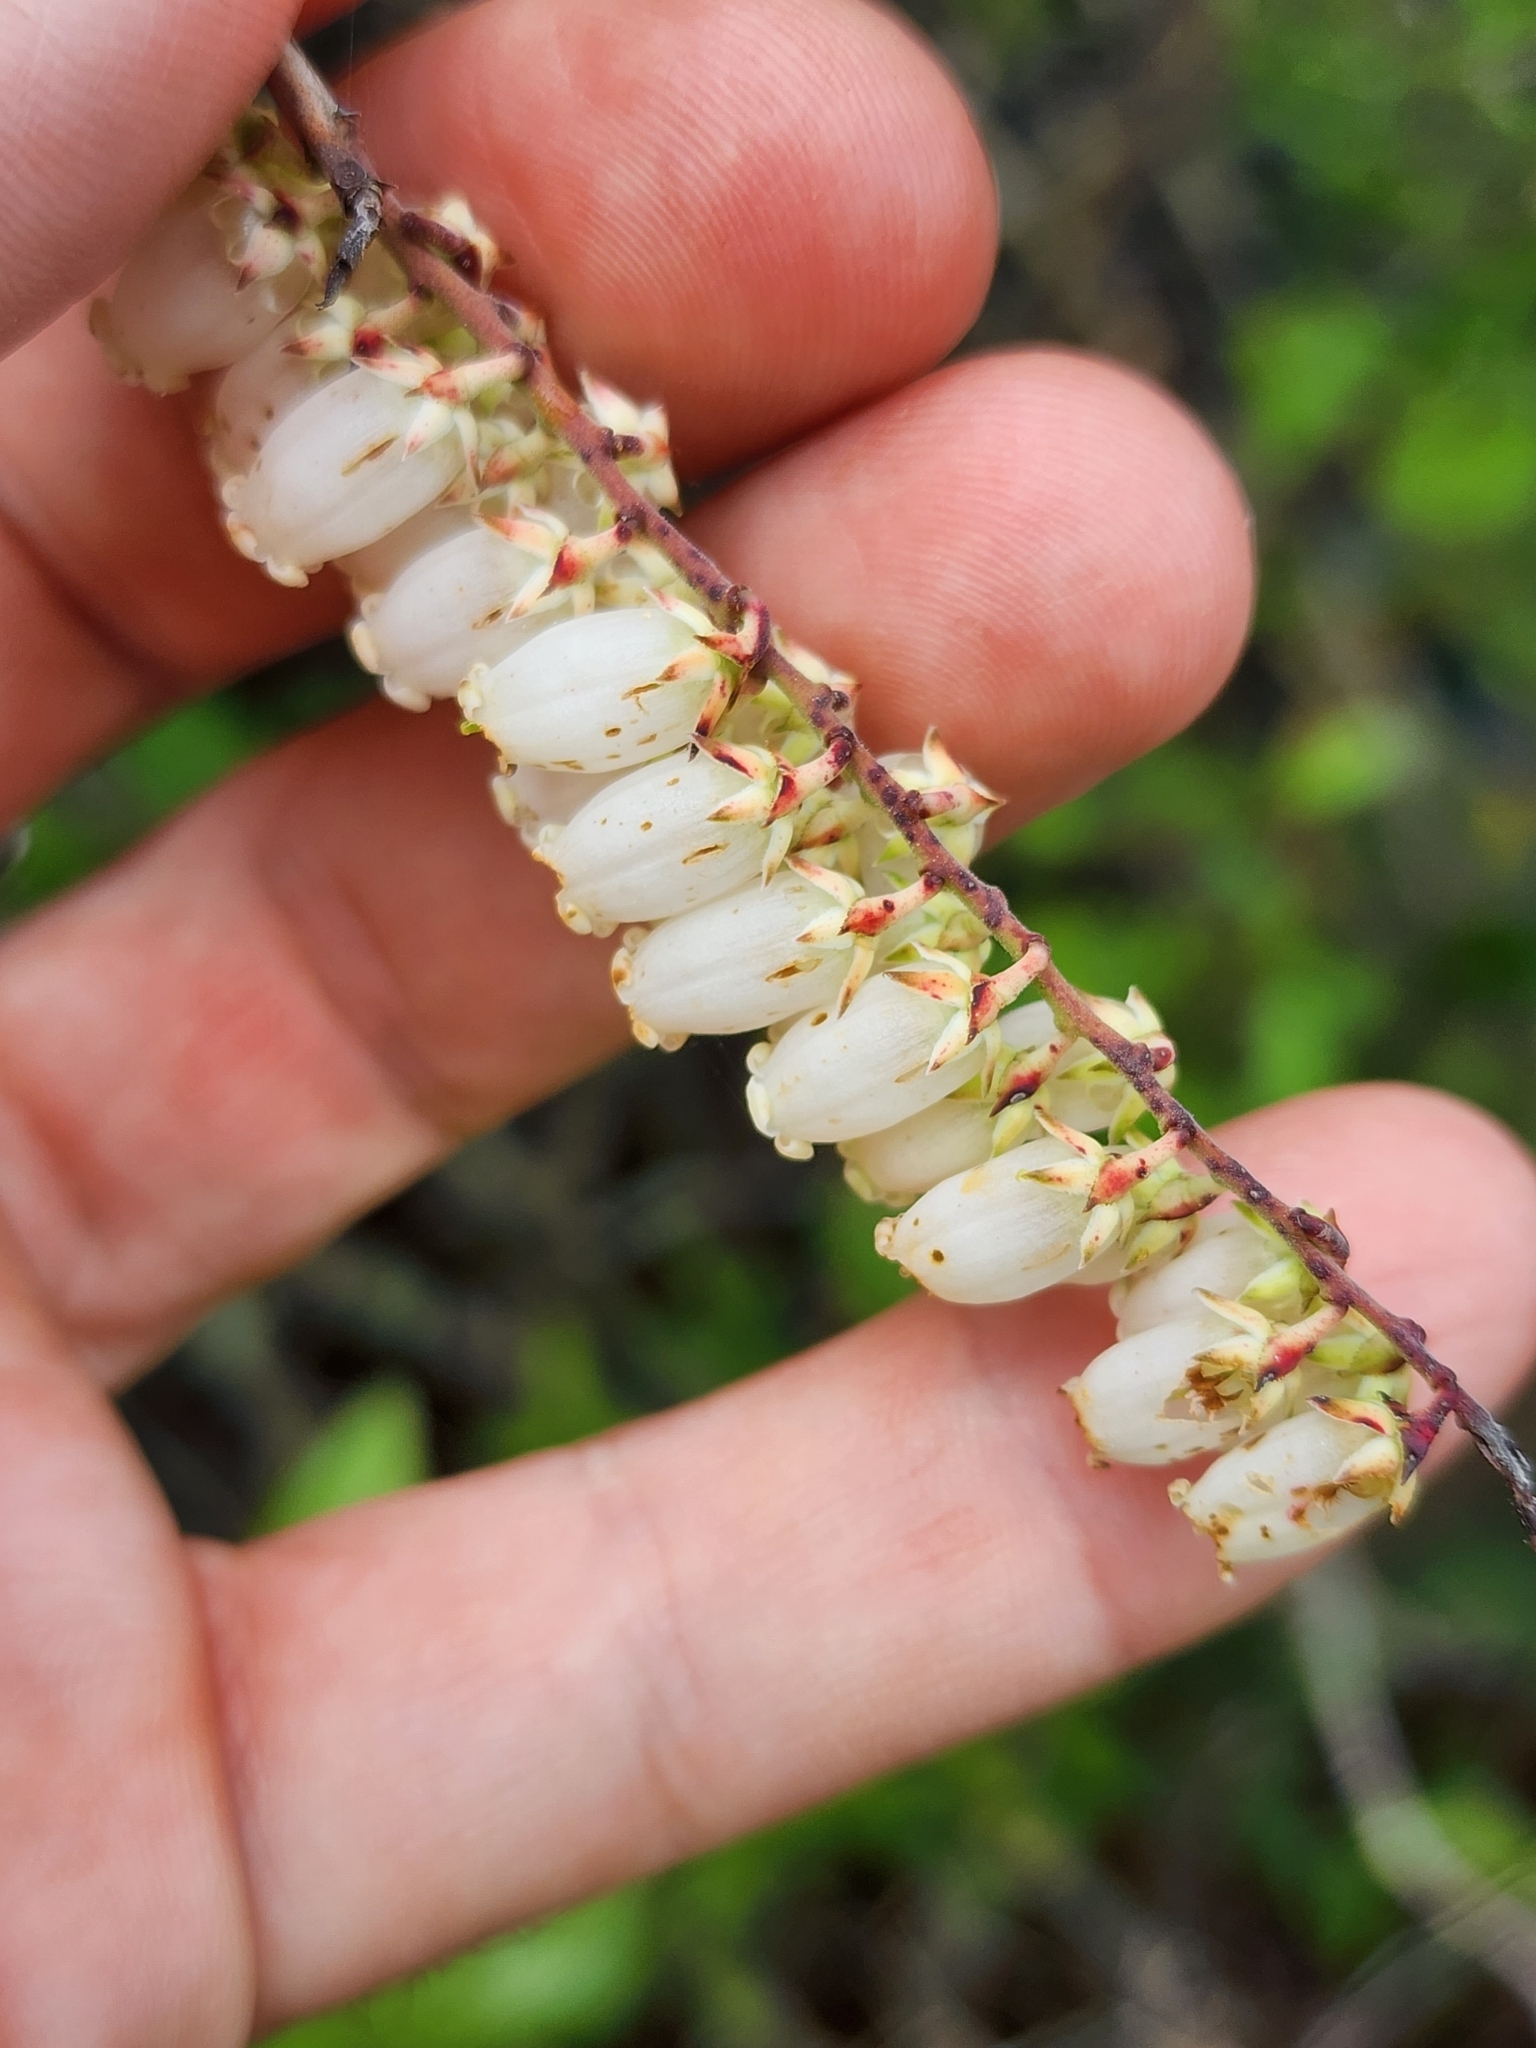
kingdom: Plantae
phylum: Tracheophyta
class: Magnoliopsida
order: Ericales
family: Ericaceae
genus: Eubotrys
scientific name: Eubotrys racemosa
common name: Fetterbush
